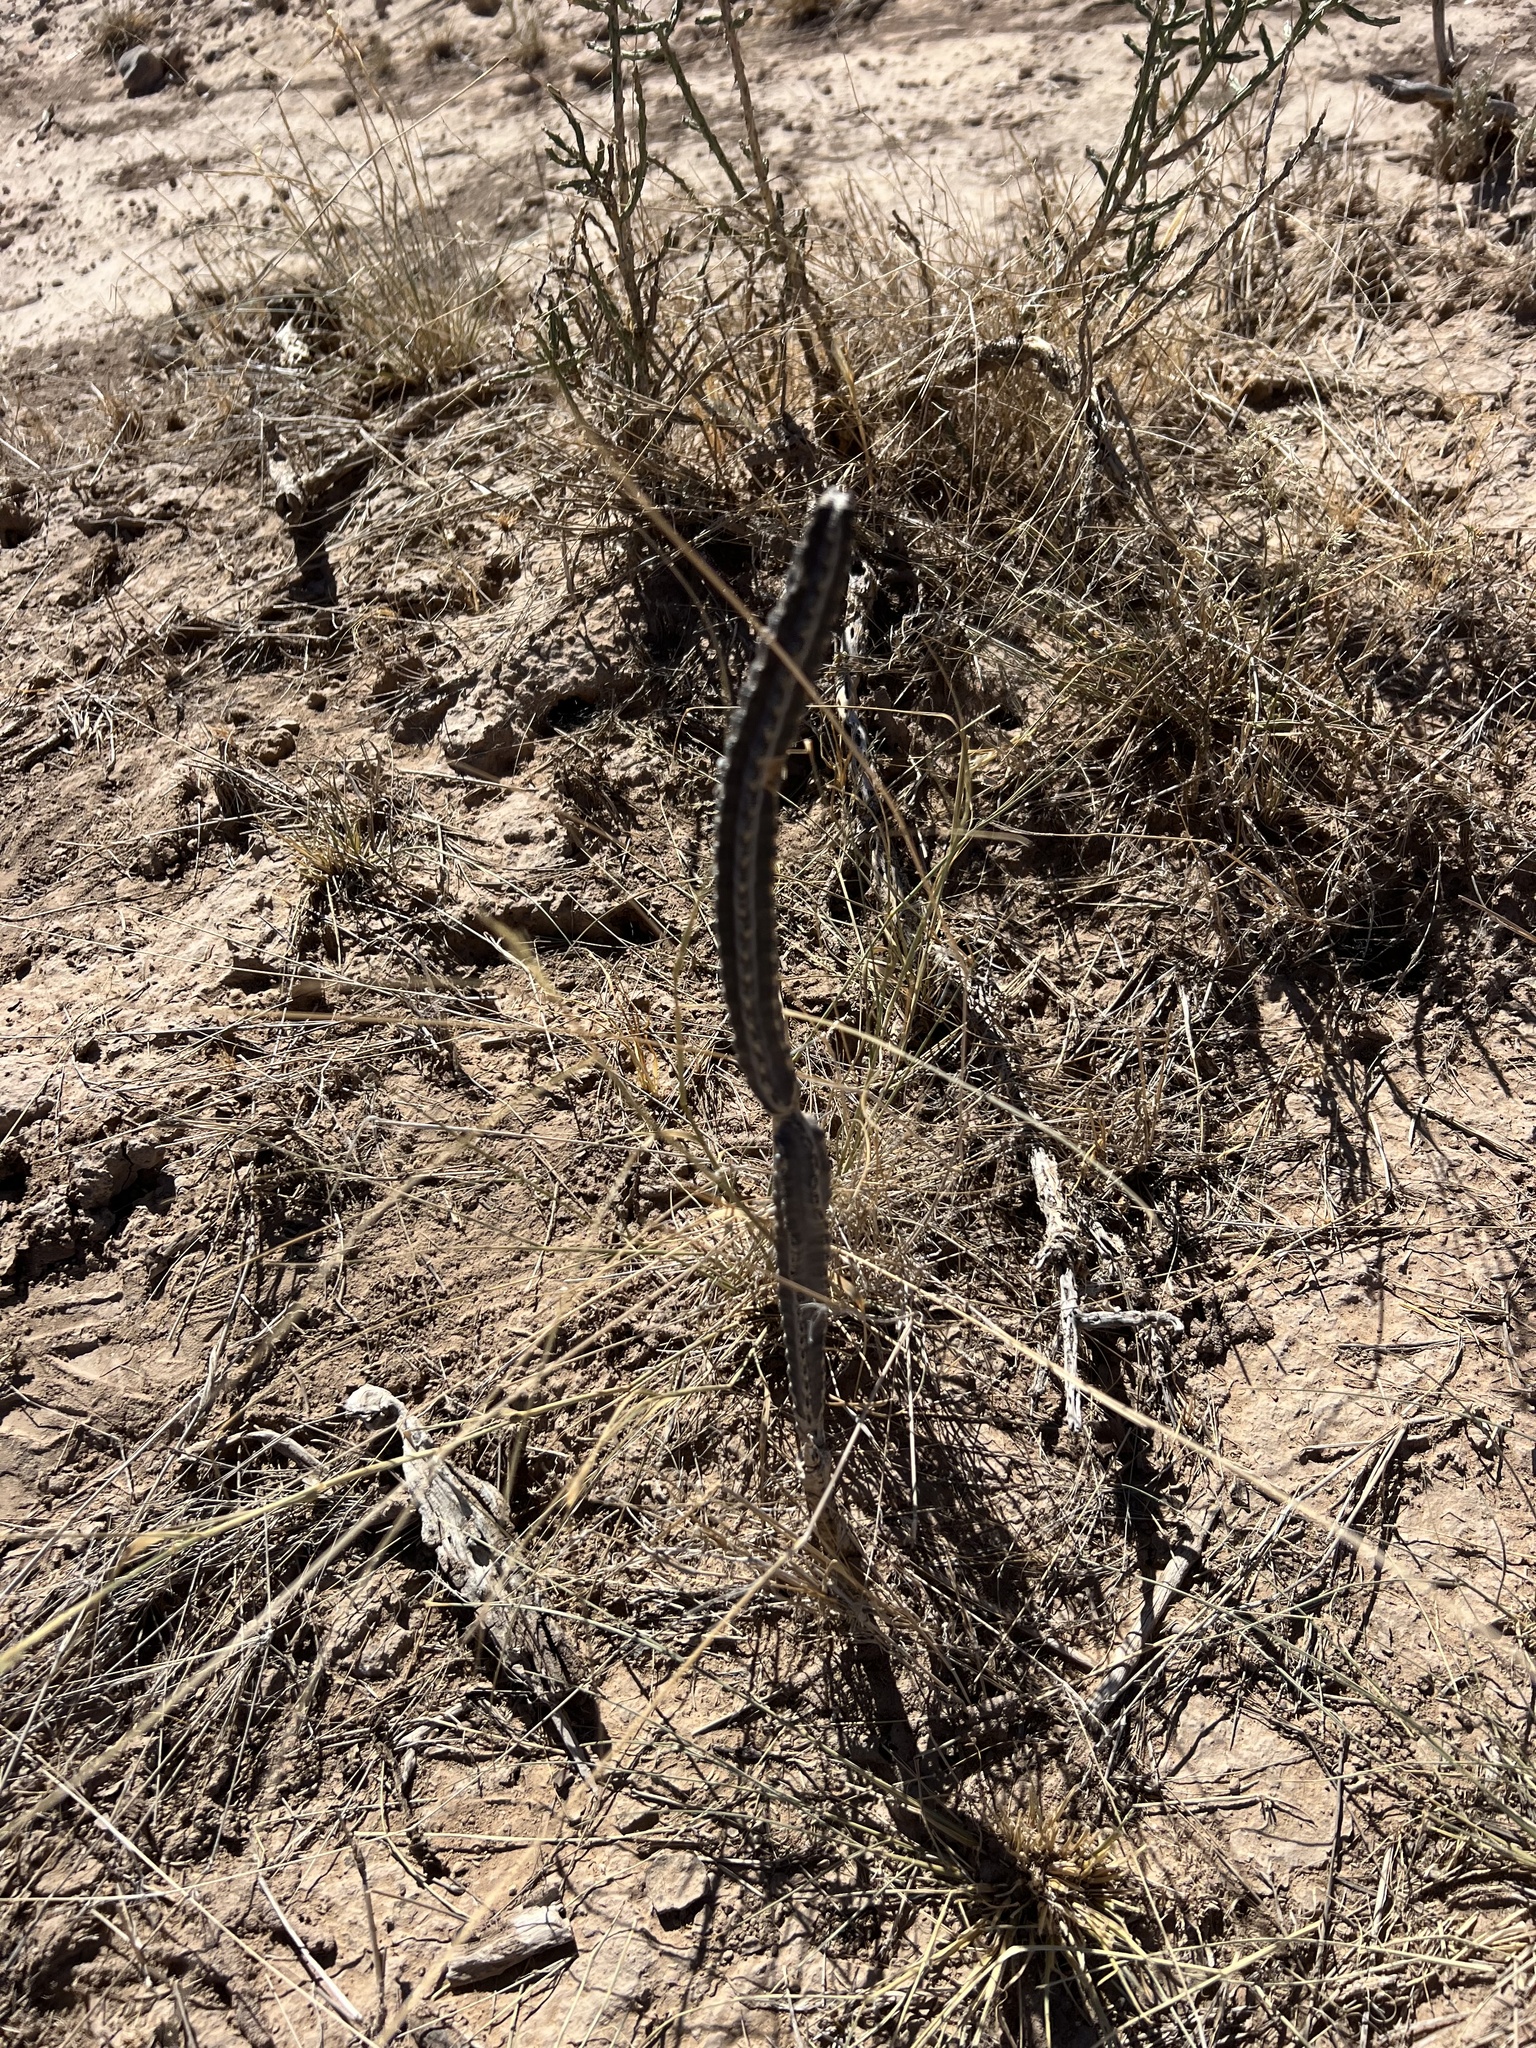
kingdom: Plantae
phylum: Tracheophyta
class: Magnoliopsida
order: Caryophyllales
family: Cactaceae
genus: Peniocereus
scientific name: Peniocereus greggii
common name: Desert night-blooming cereus
